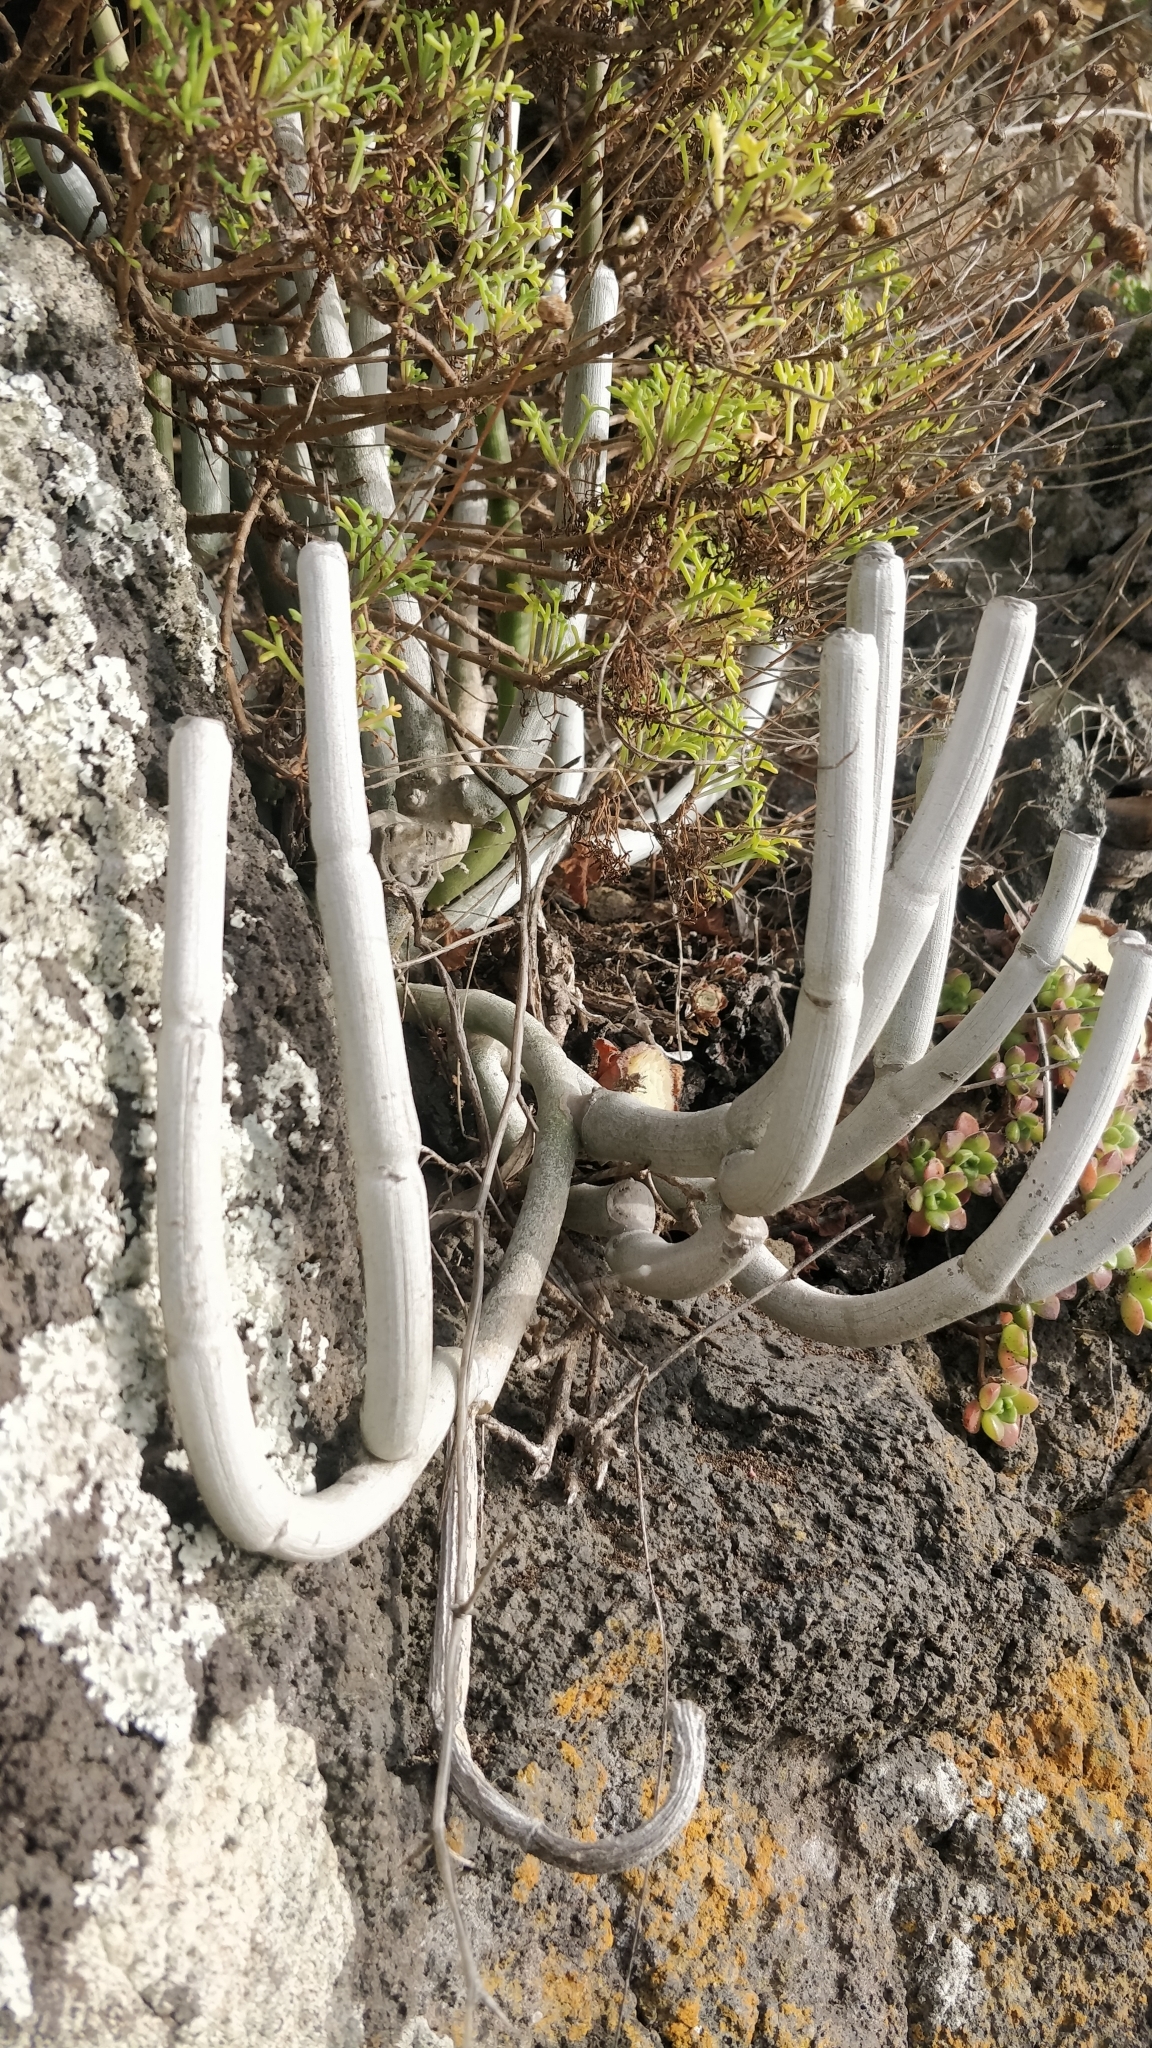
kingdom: Plantae
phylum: Tracheophyta
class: Magnoliopsida
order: Gentianales
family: Apocynaceae
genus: Ceropegia
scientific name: Ceropegia dichotoma
